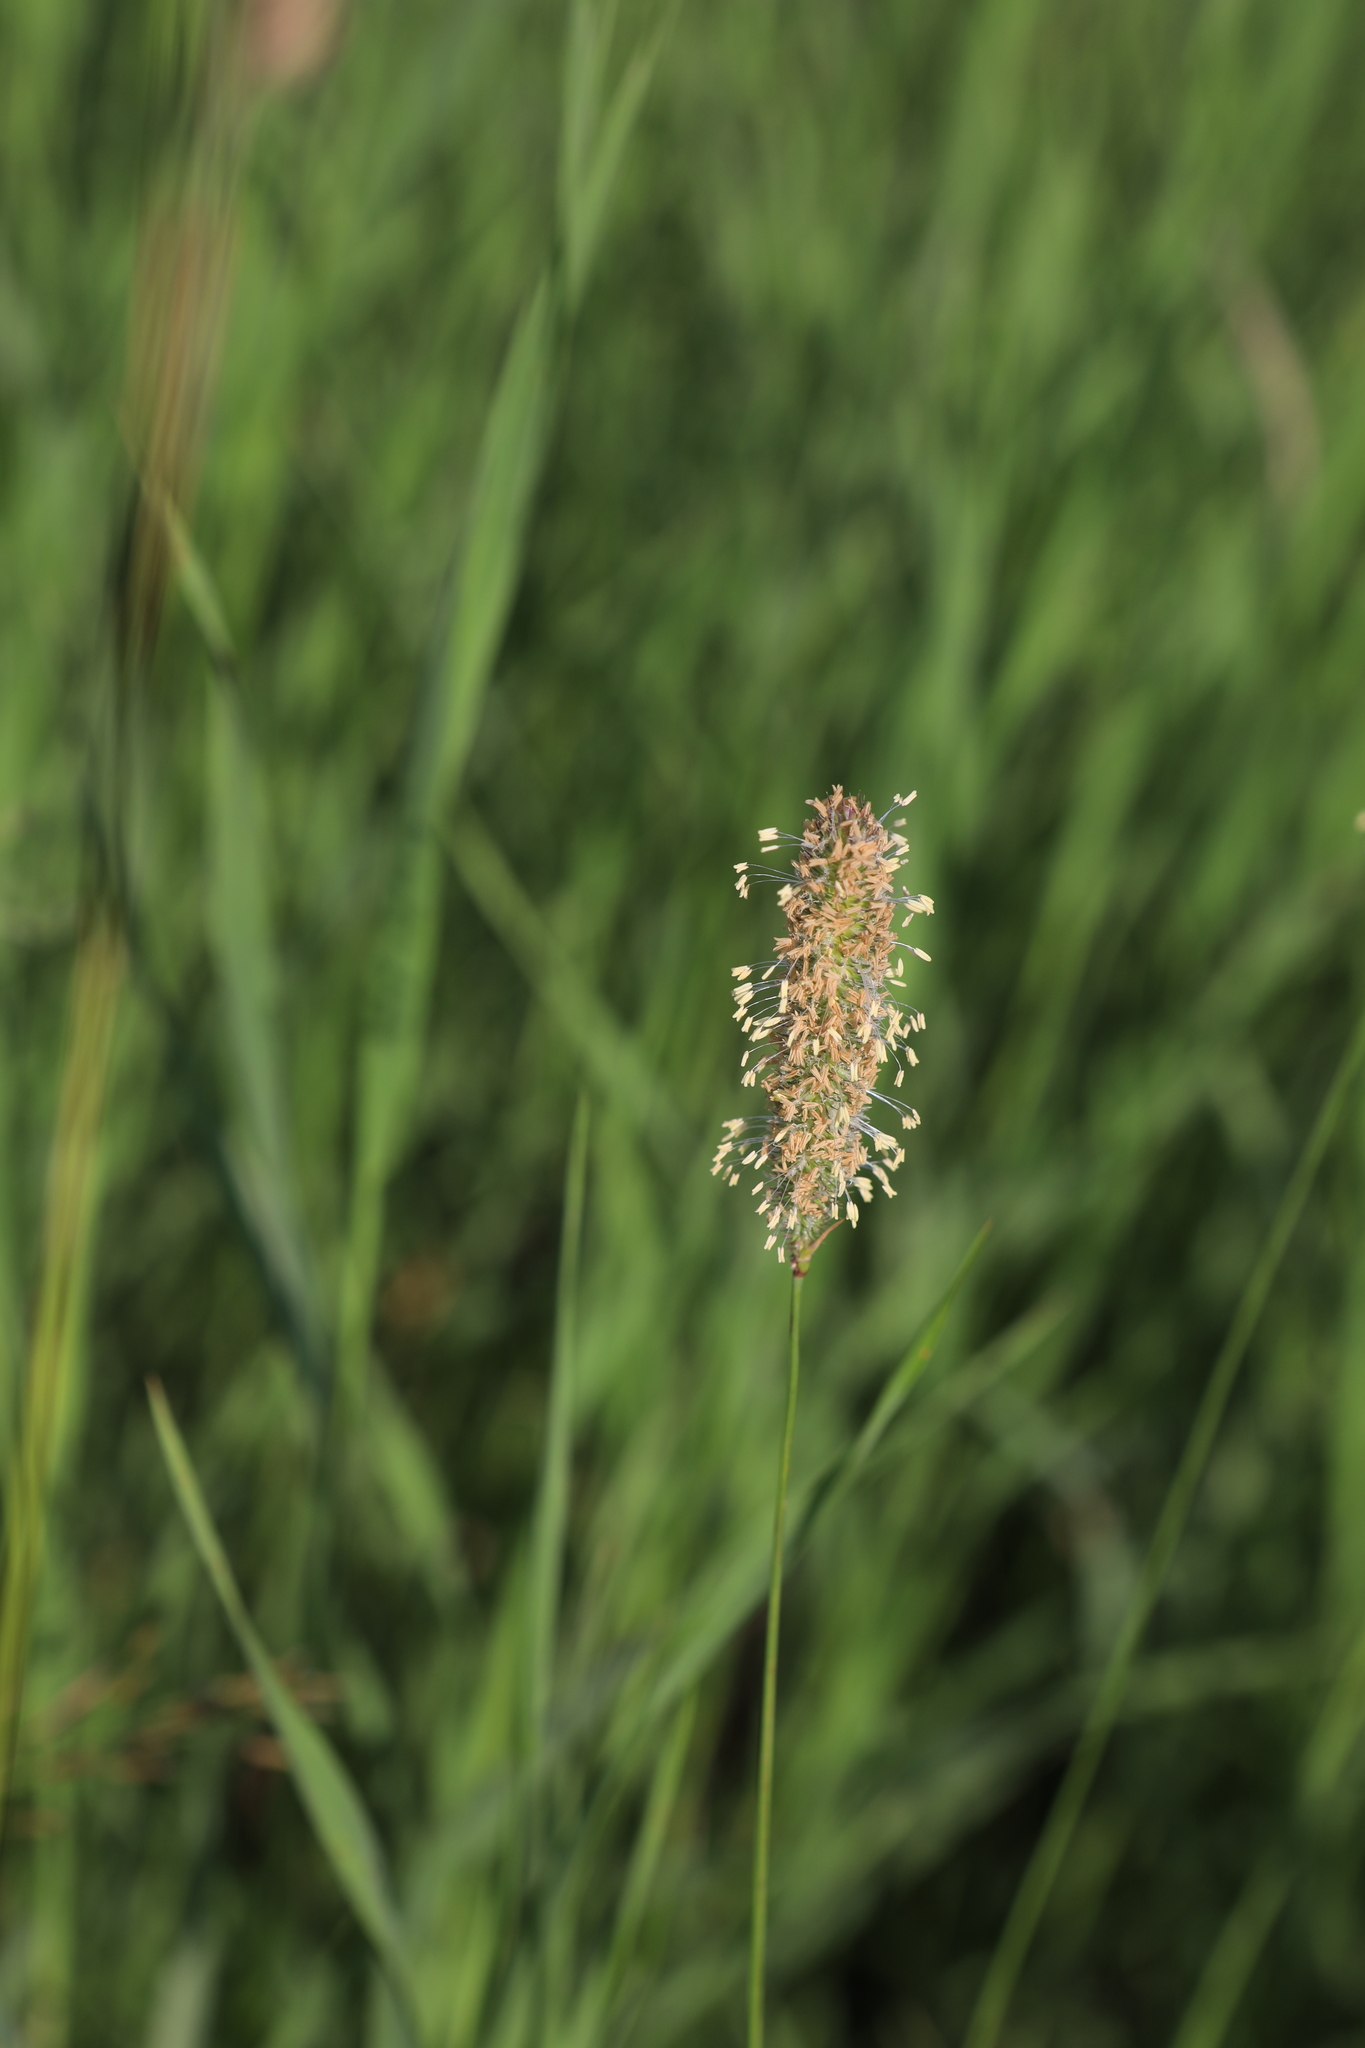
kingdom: Plantae
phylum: Tracheophyta
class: Liliopsida
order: Poales
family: Poaceae
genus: Phleum
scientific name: Phleum pratense
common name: Timothy grass
